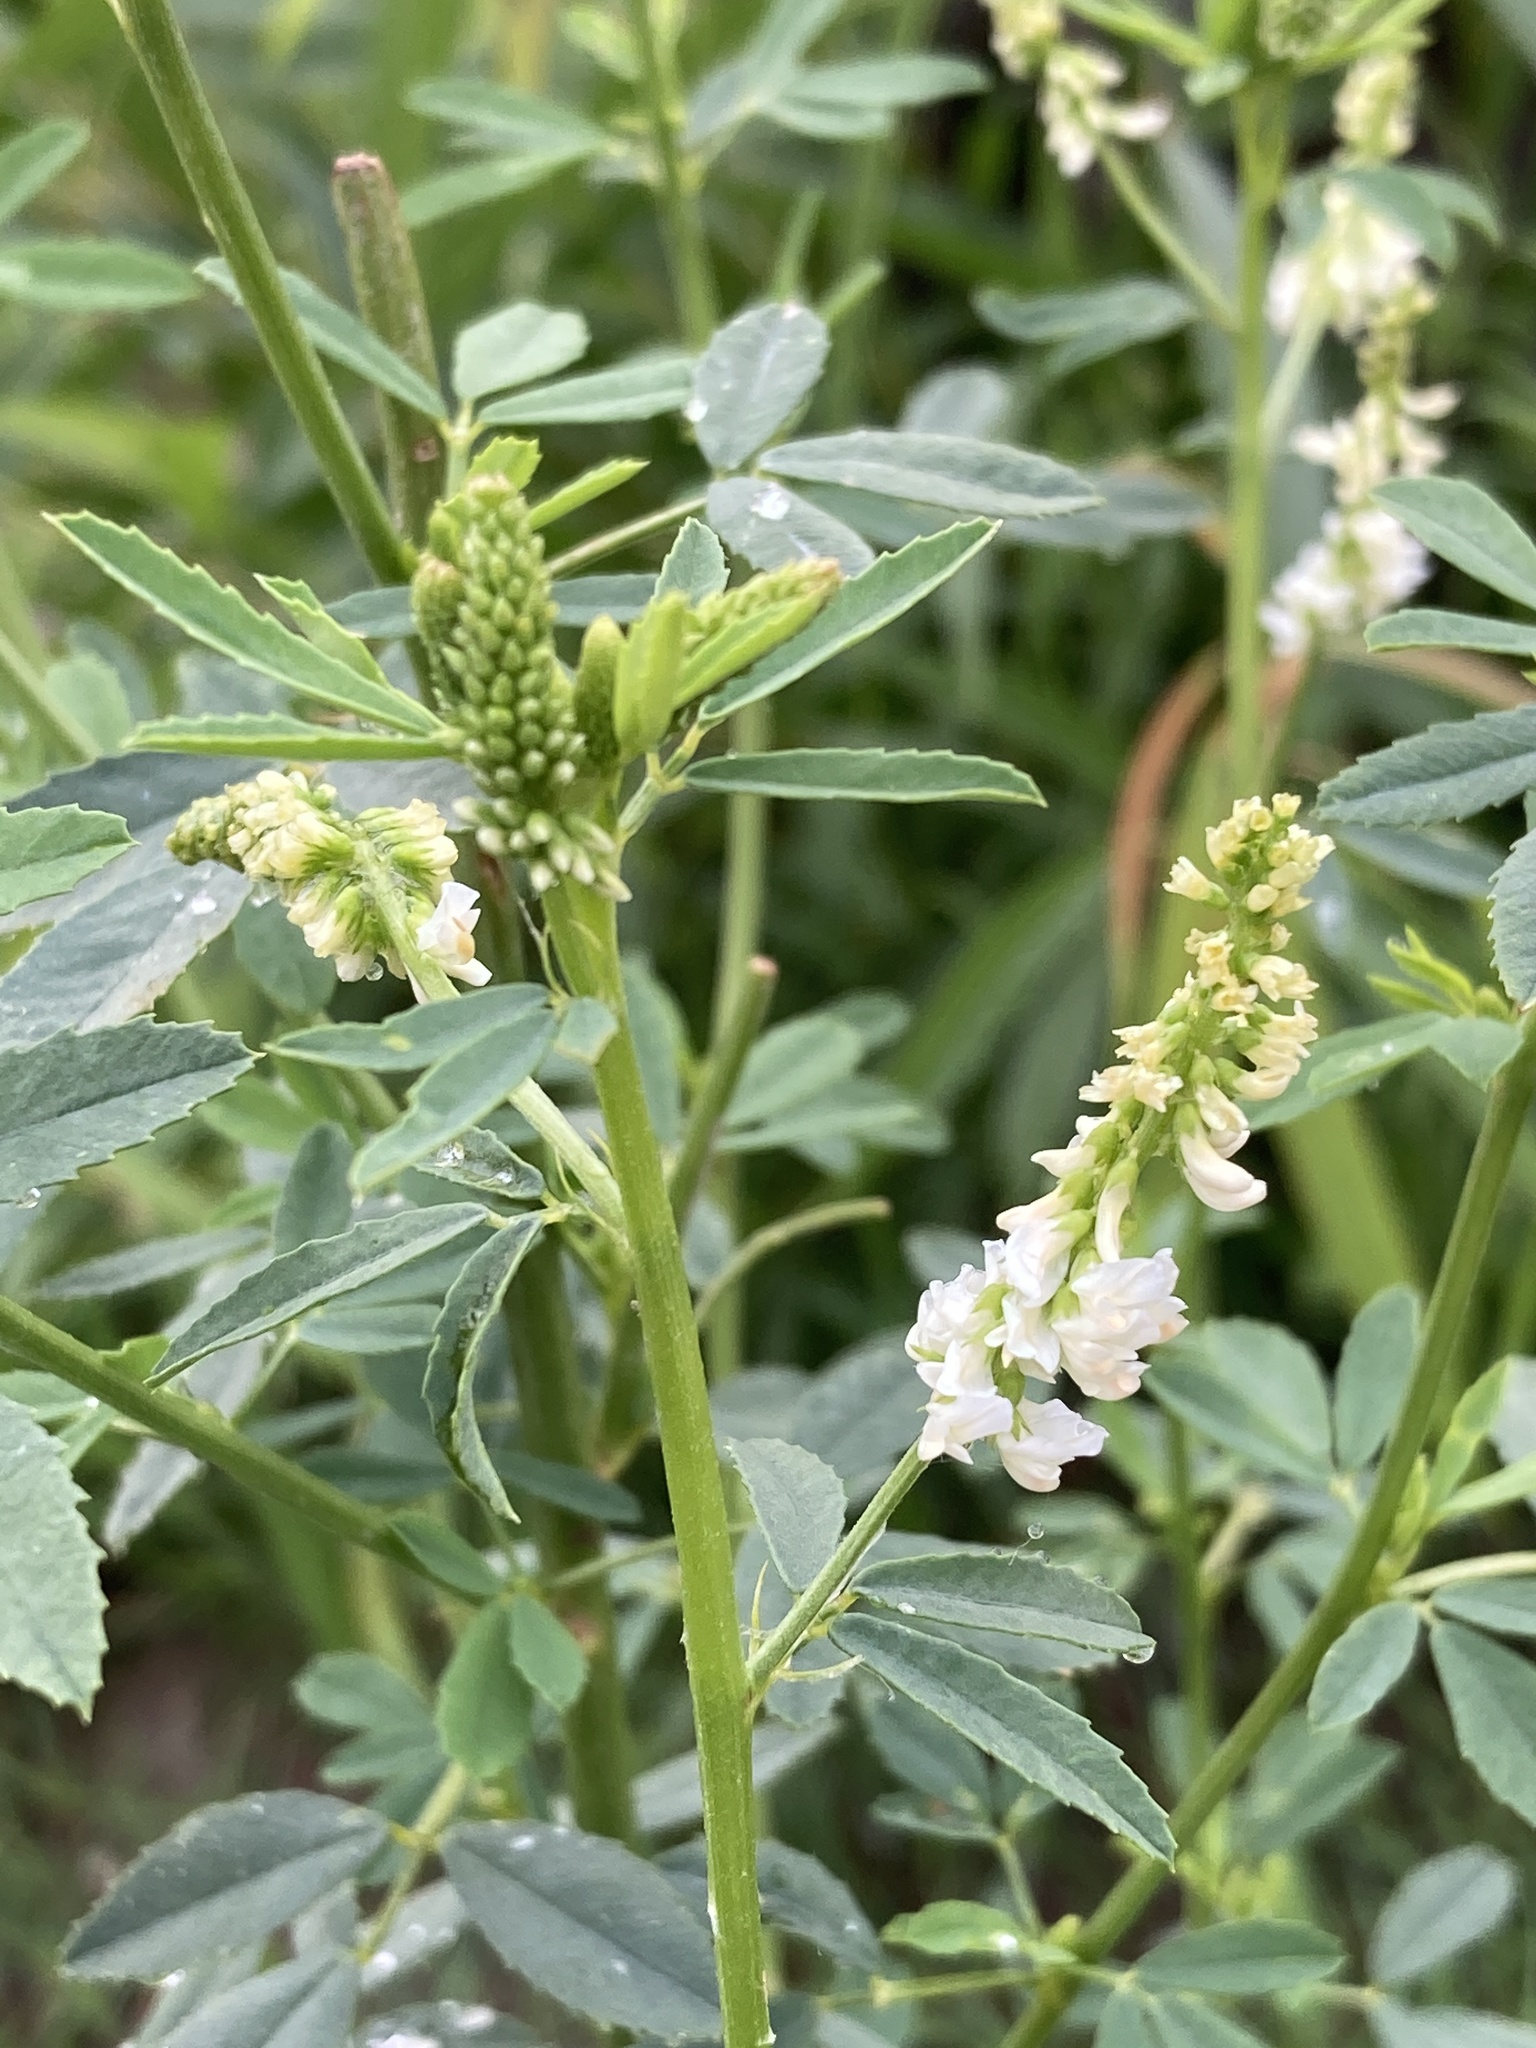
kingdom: Plantae
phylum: Tracheophyta
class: Magnoliopsida
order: Fabales
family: Fabaceae
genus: Melilotus
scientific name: Melilotus albus
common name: White melilot
